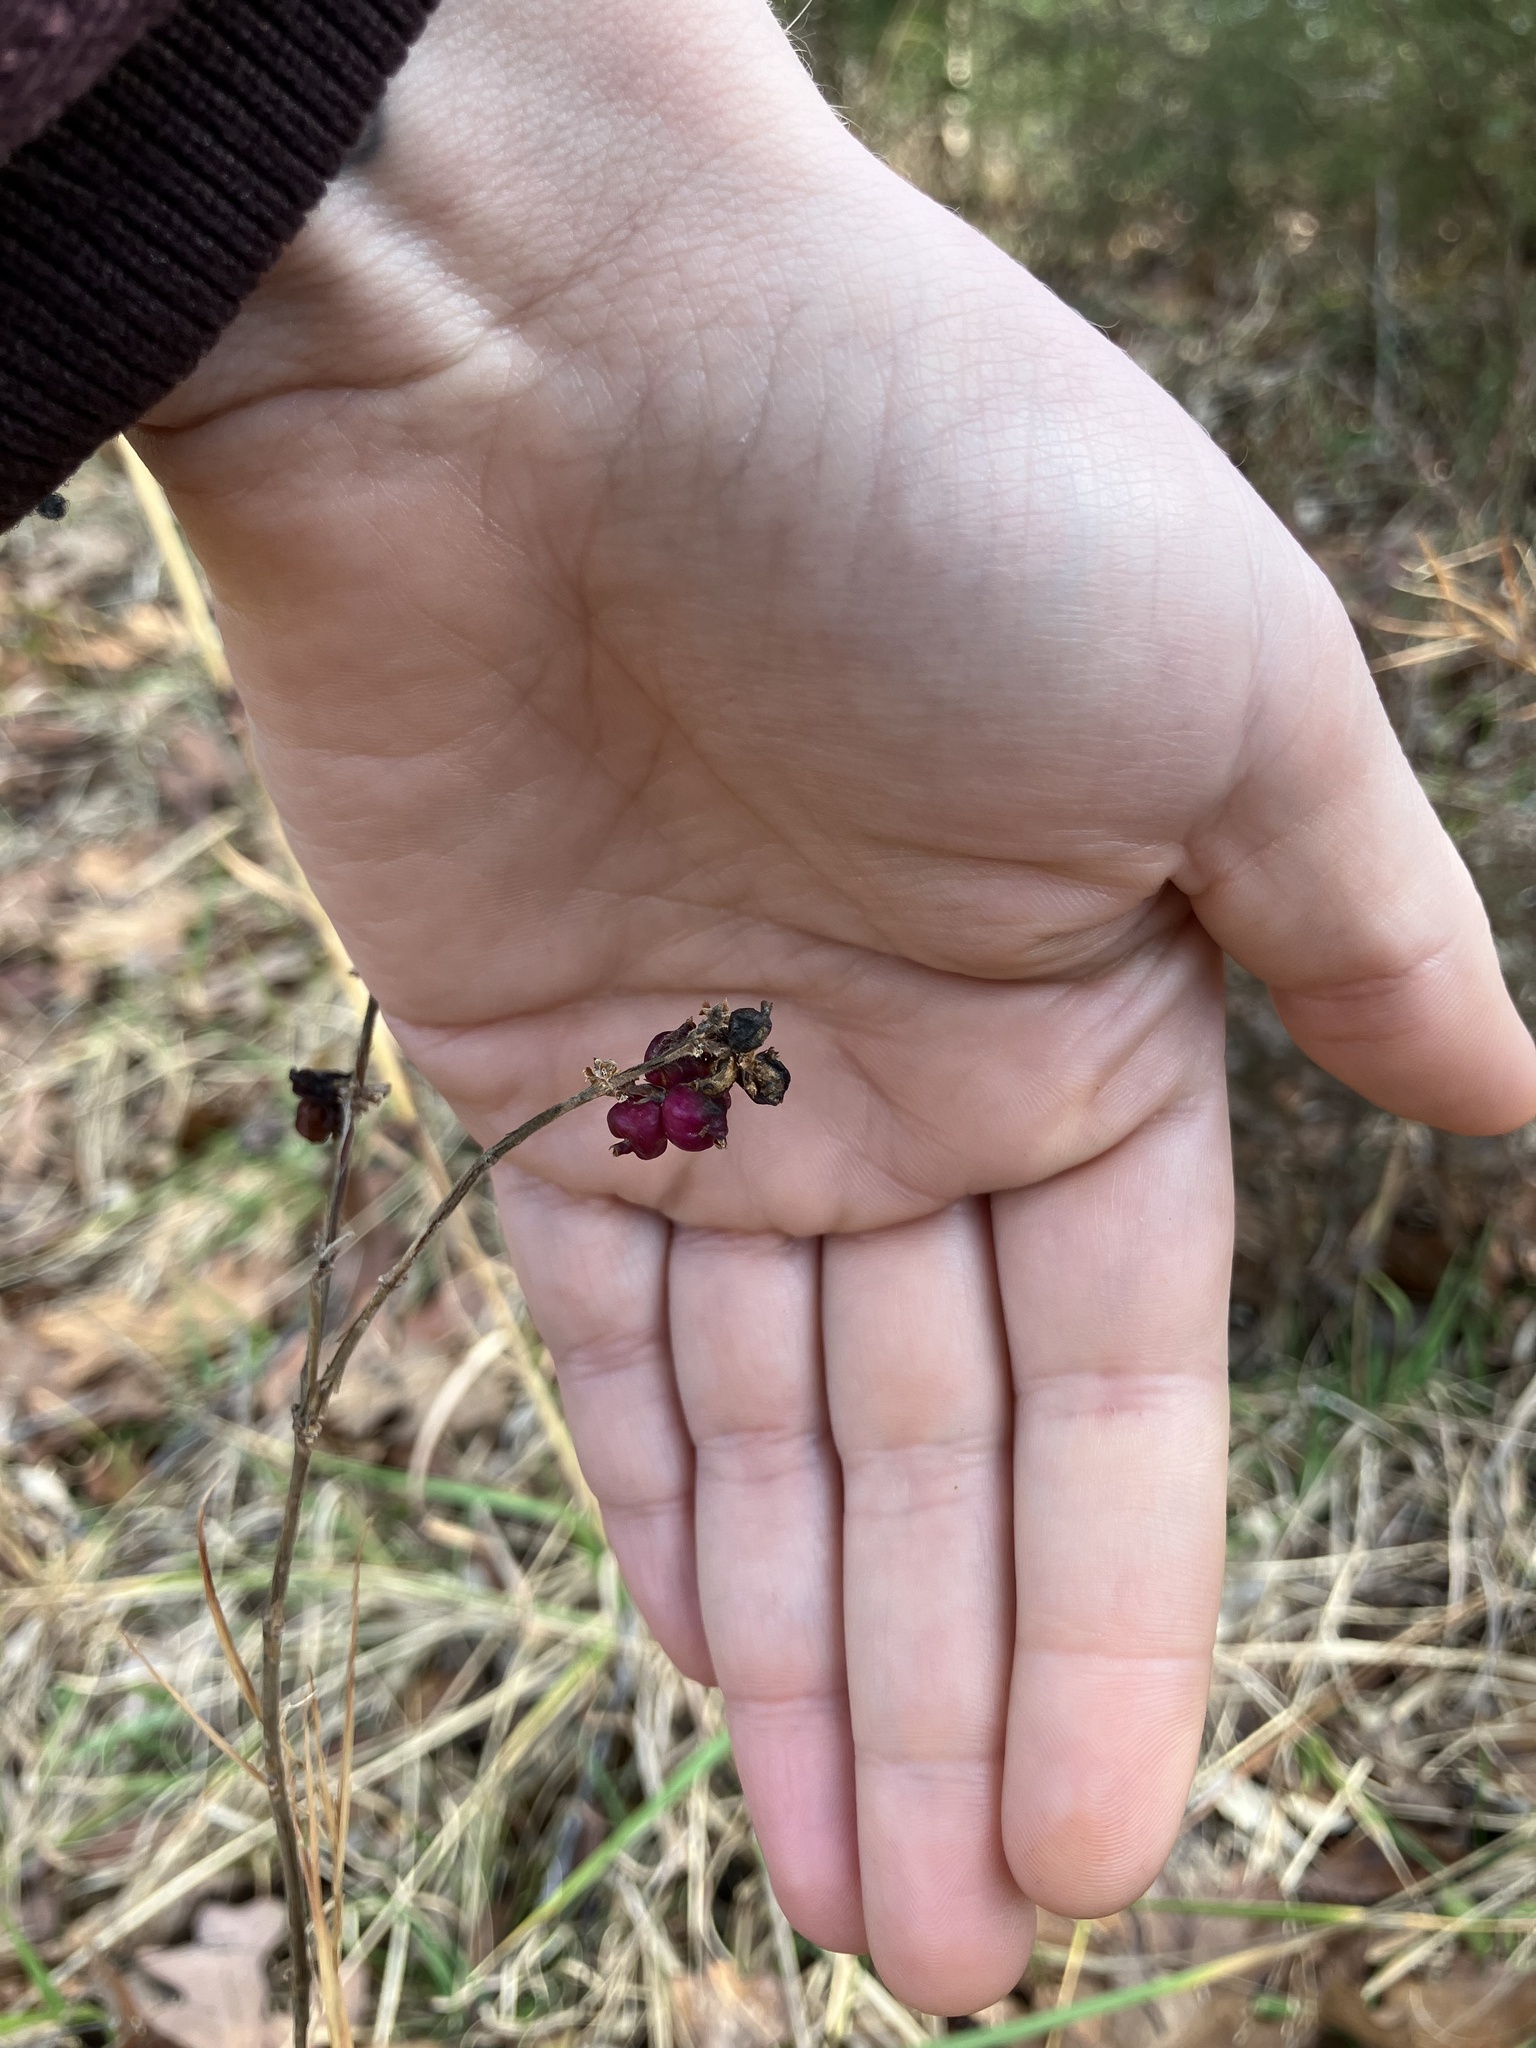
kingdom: Plantae
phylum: Tracheophyta
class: Magnoliopsida
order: Dipsacales
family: Caprifoliaceae
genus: Symphoricarpos
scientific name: Symphoricarpos orbiculatus
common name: Coralberry
